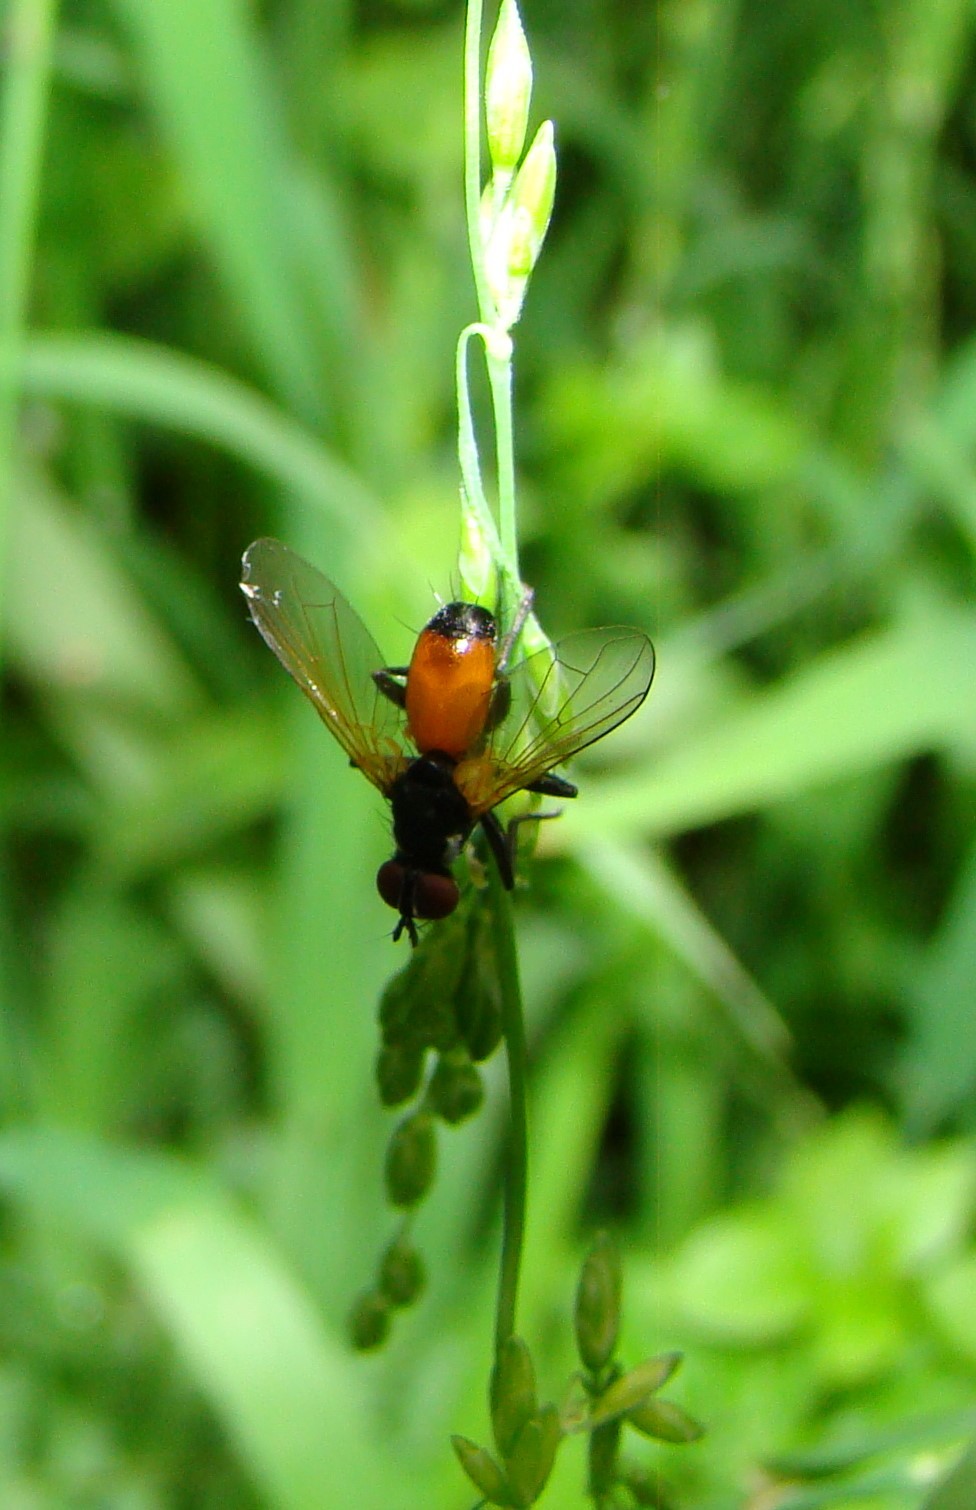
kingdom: Animalia
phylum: Arthropoda
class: Insecta
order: Diptera
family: Tachinidae
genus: Huttonobesseria
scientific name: Huttonobesseria verecunda
